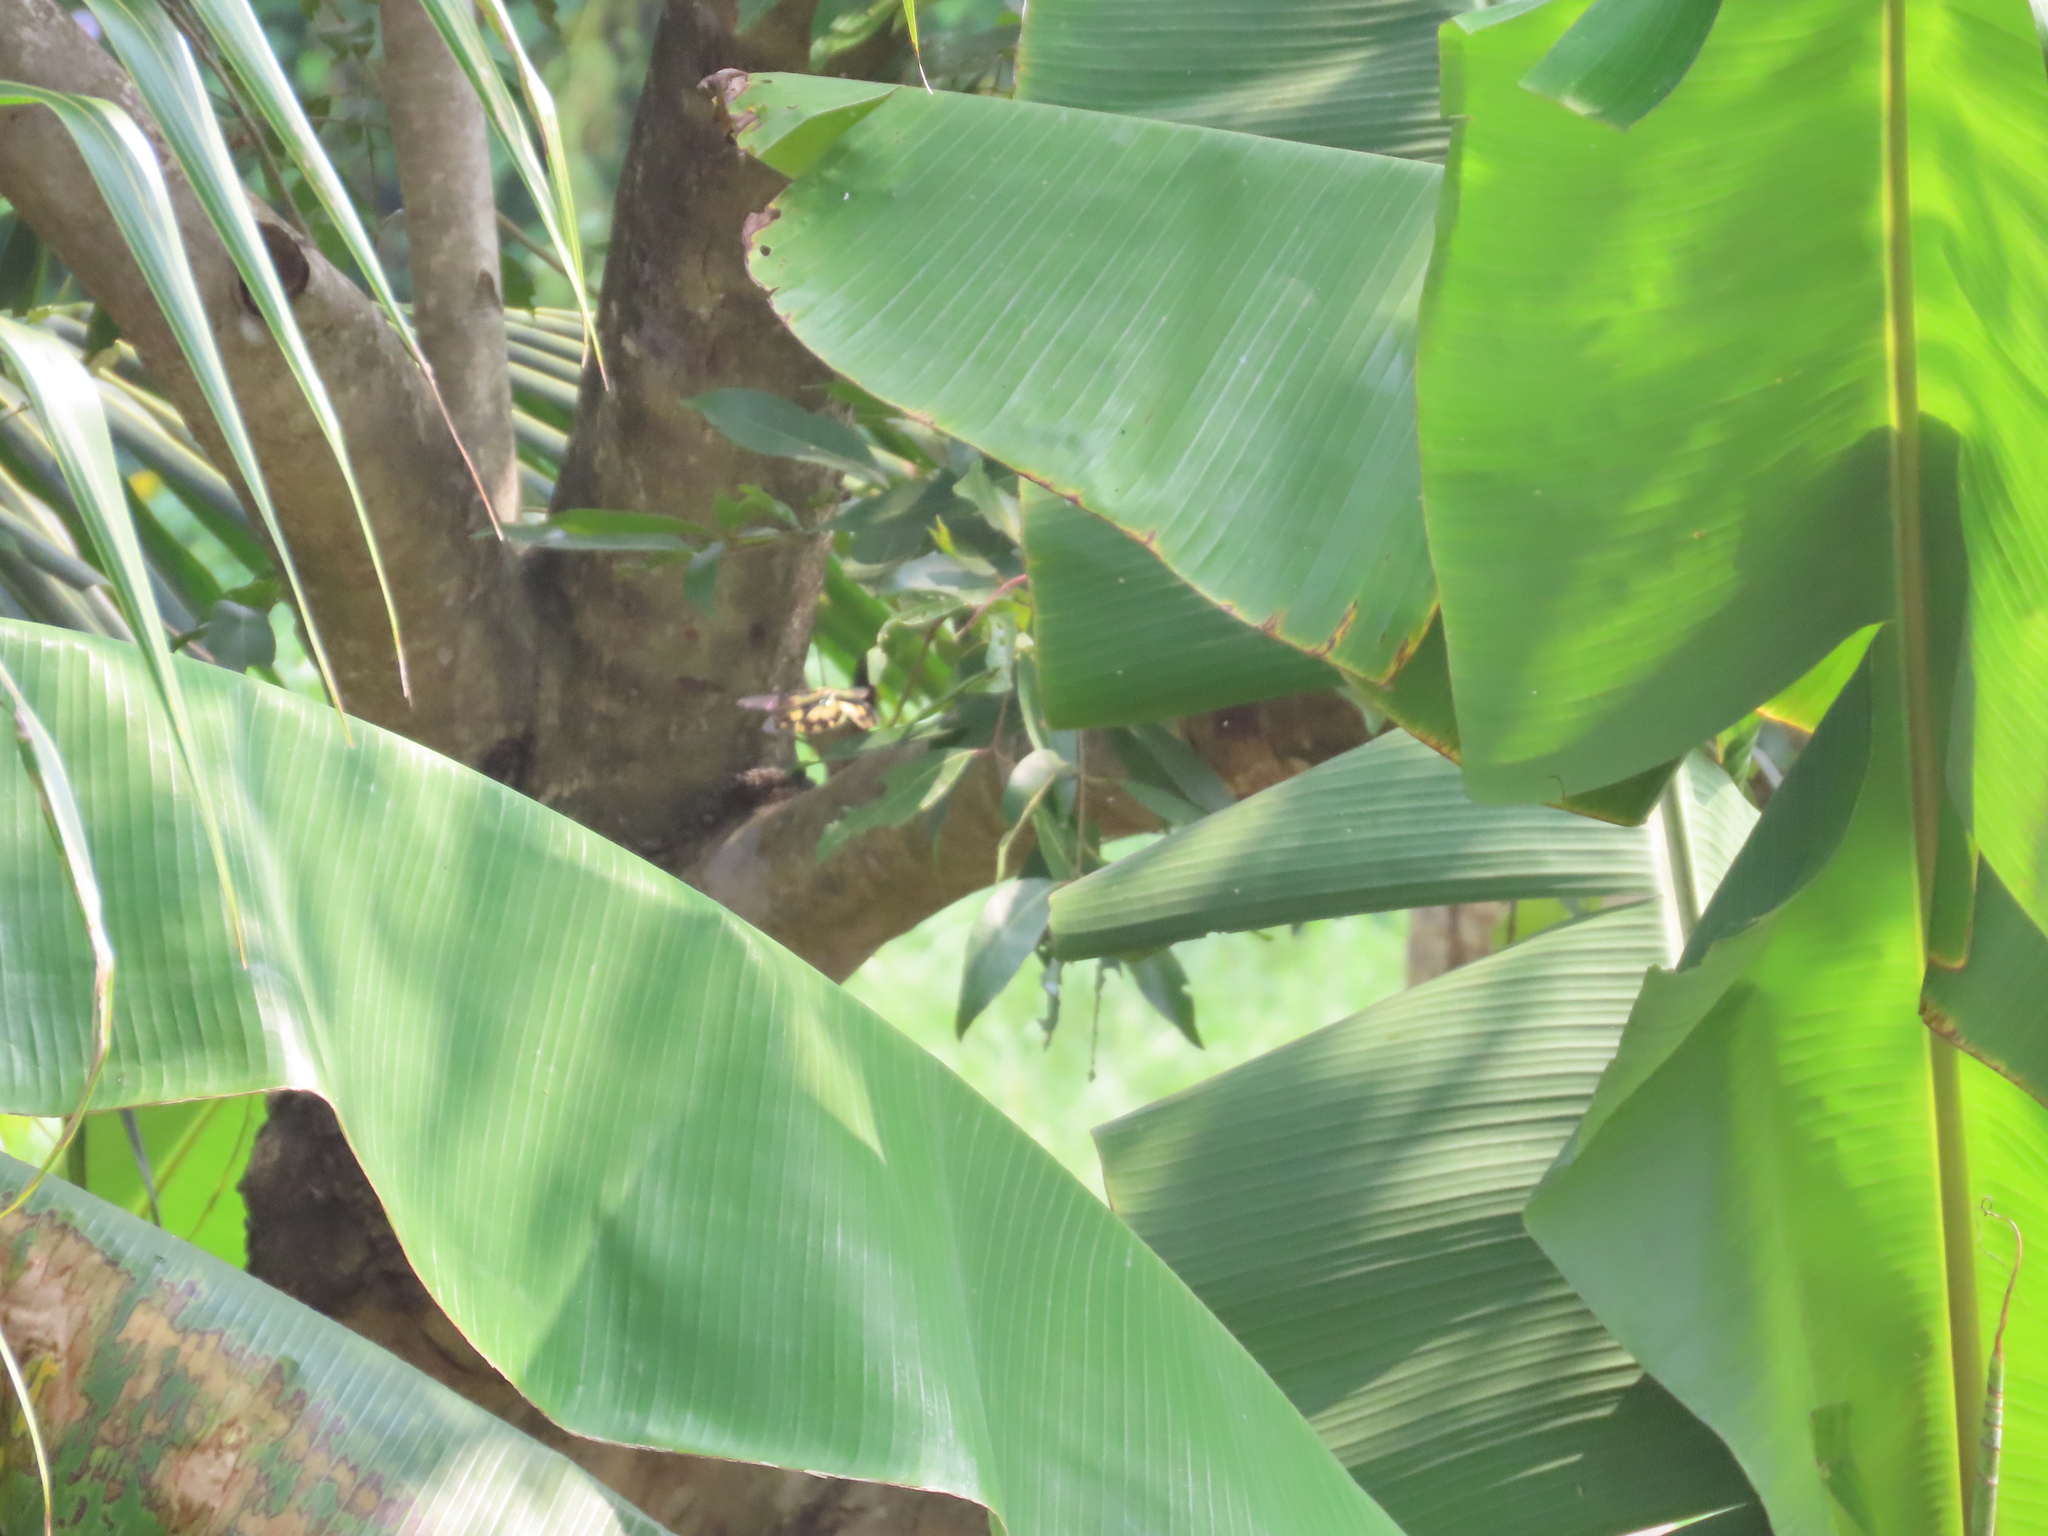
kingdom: Animalia
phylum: Arthropoda
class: Insecta
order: Odonata
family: Libellulidae
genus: Rhyothemis
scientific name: Rhyothemis variegata
